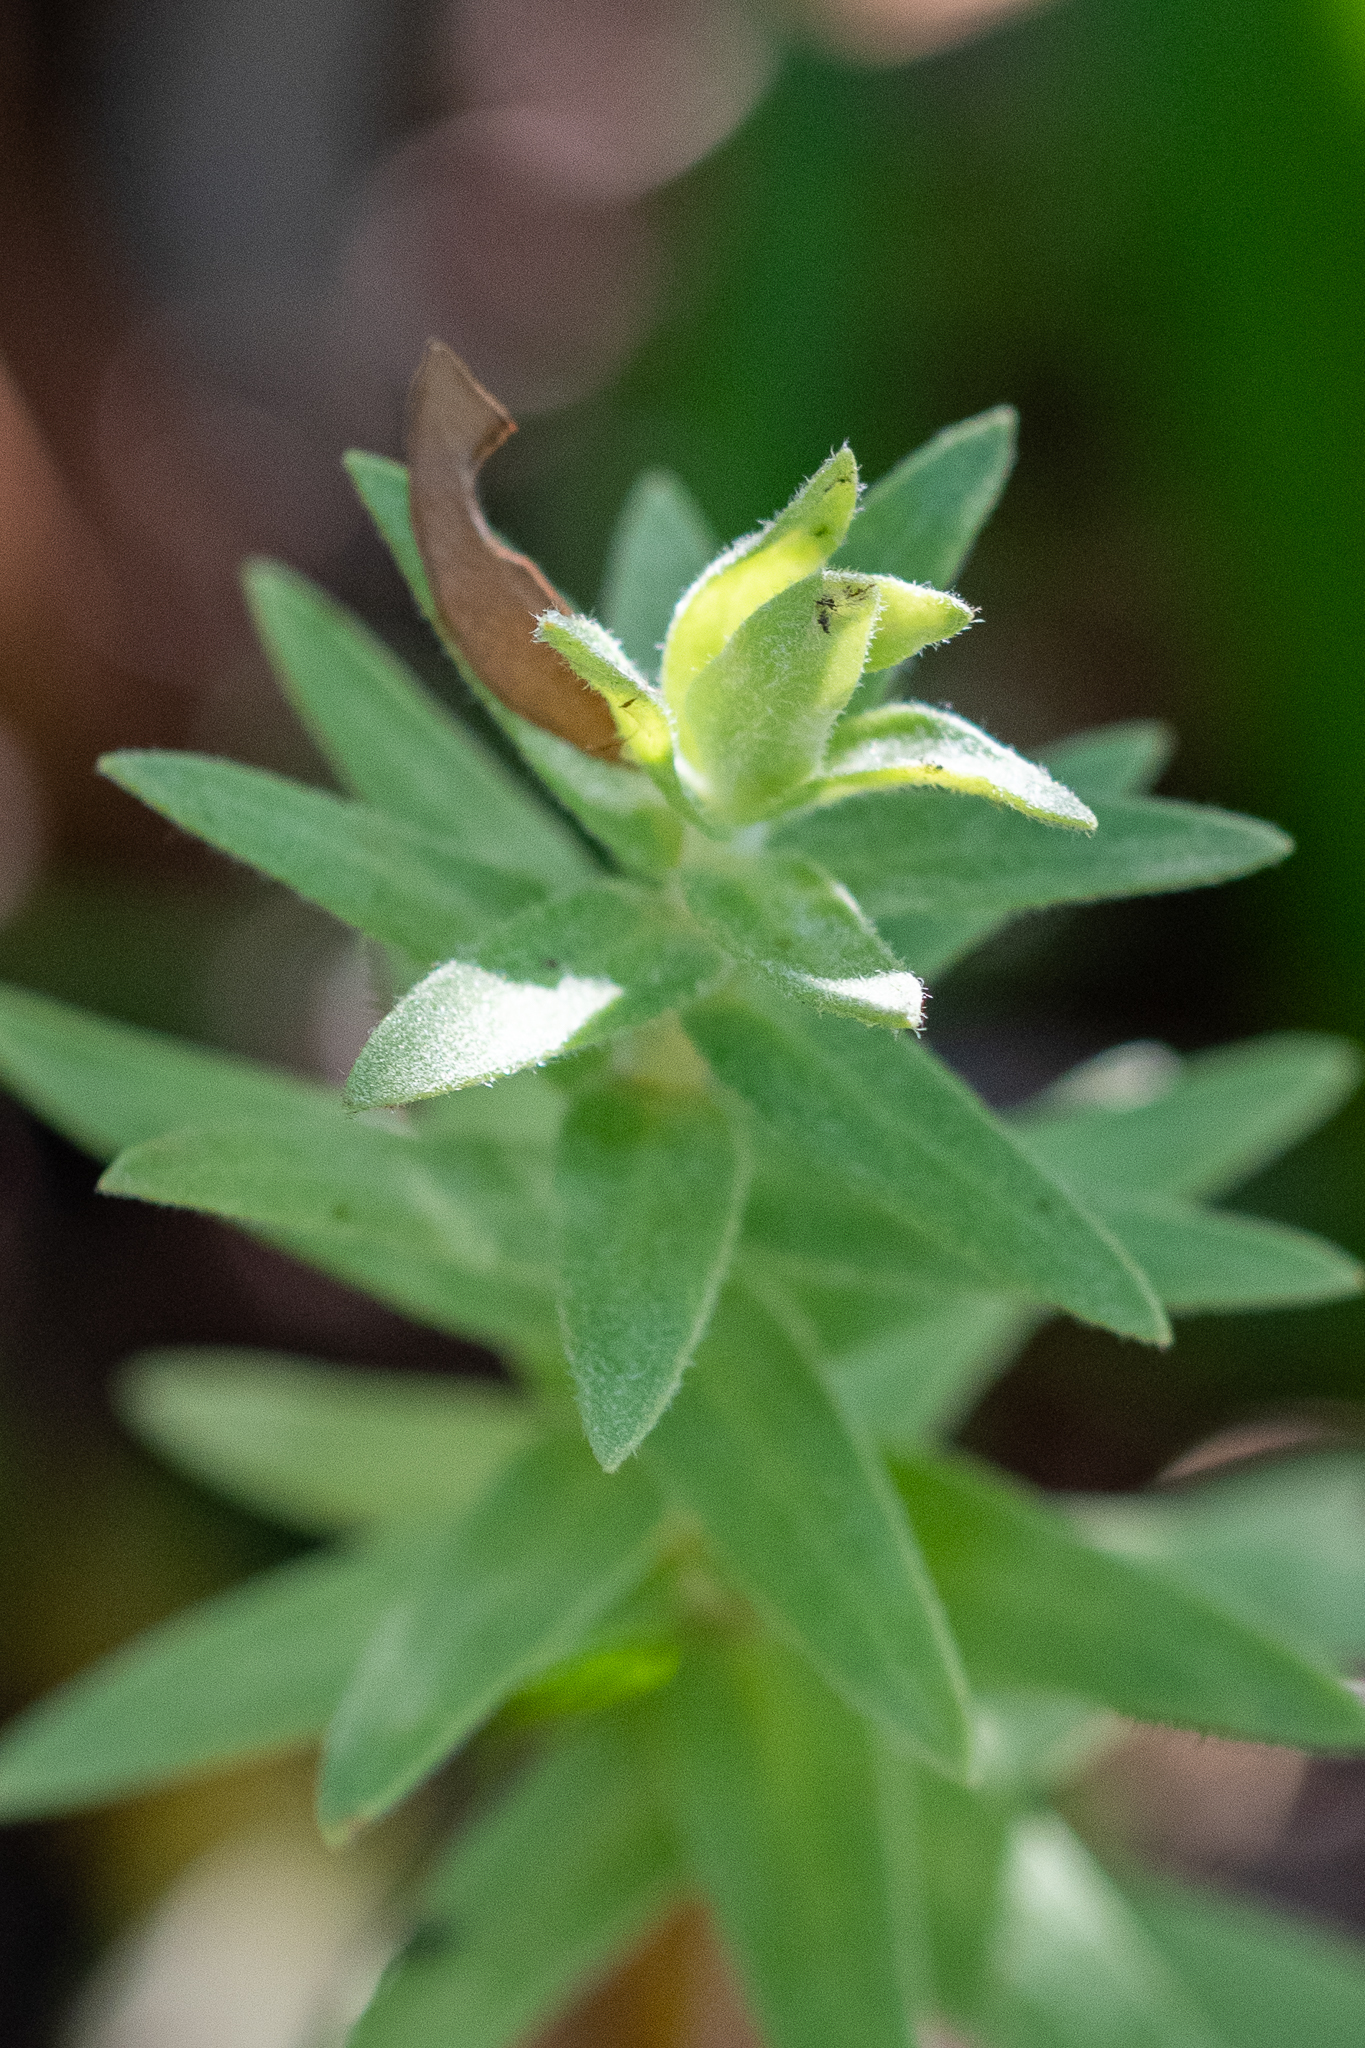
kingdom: Plantae
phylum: Tracheophyta
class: Magnoliopsida
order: Asterales
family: Asteraceae
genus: Osmitopsis
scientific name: Osmitopsis asteriscoides
